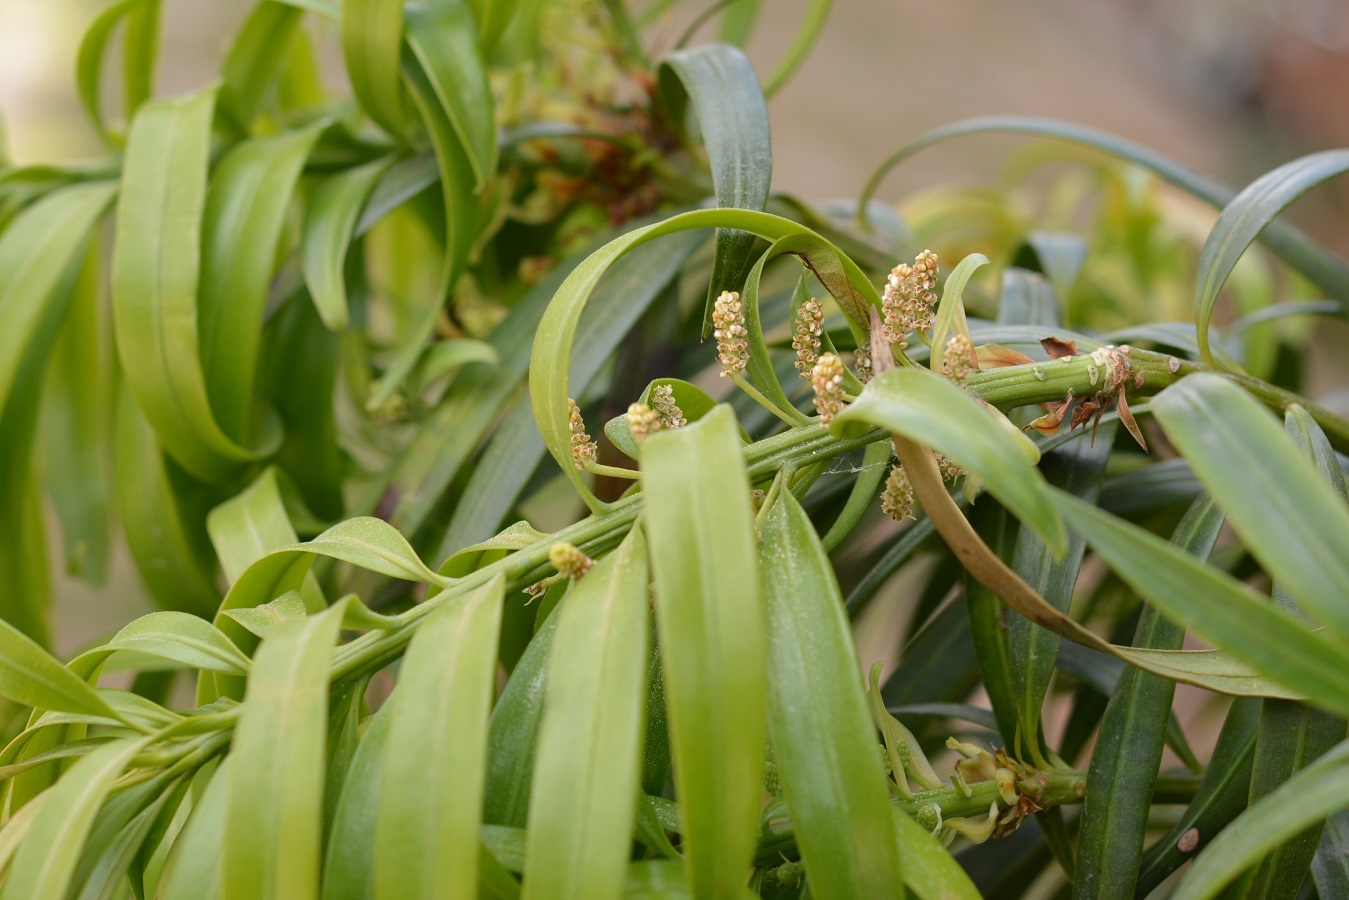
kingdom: Plantae
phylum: Tracheophyta
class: Pinopsida
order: Pinales
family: Podocarpaceae
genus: Podocarpus
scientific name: Podocarpus matudae
